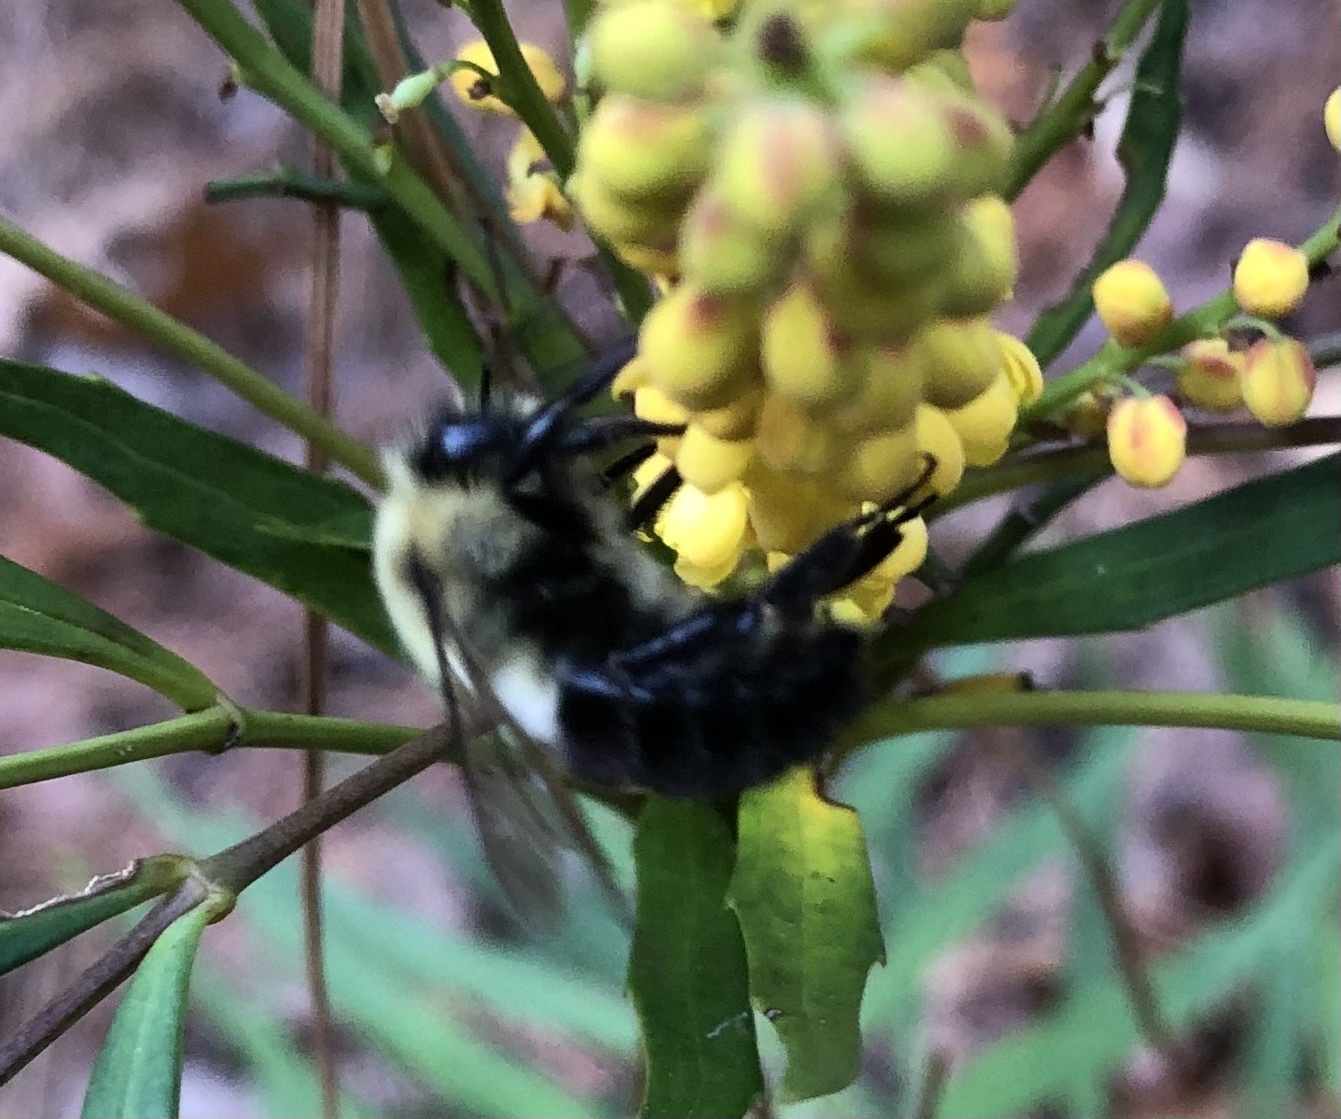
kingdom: Animalia
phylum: Arthropoda
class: Insecta
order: Hymenoptera
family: Apidae
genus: Bombus
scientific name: Bombus impatiens
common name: Common eastern bumble bee
